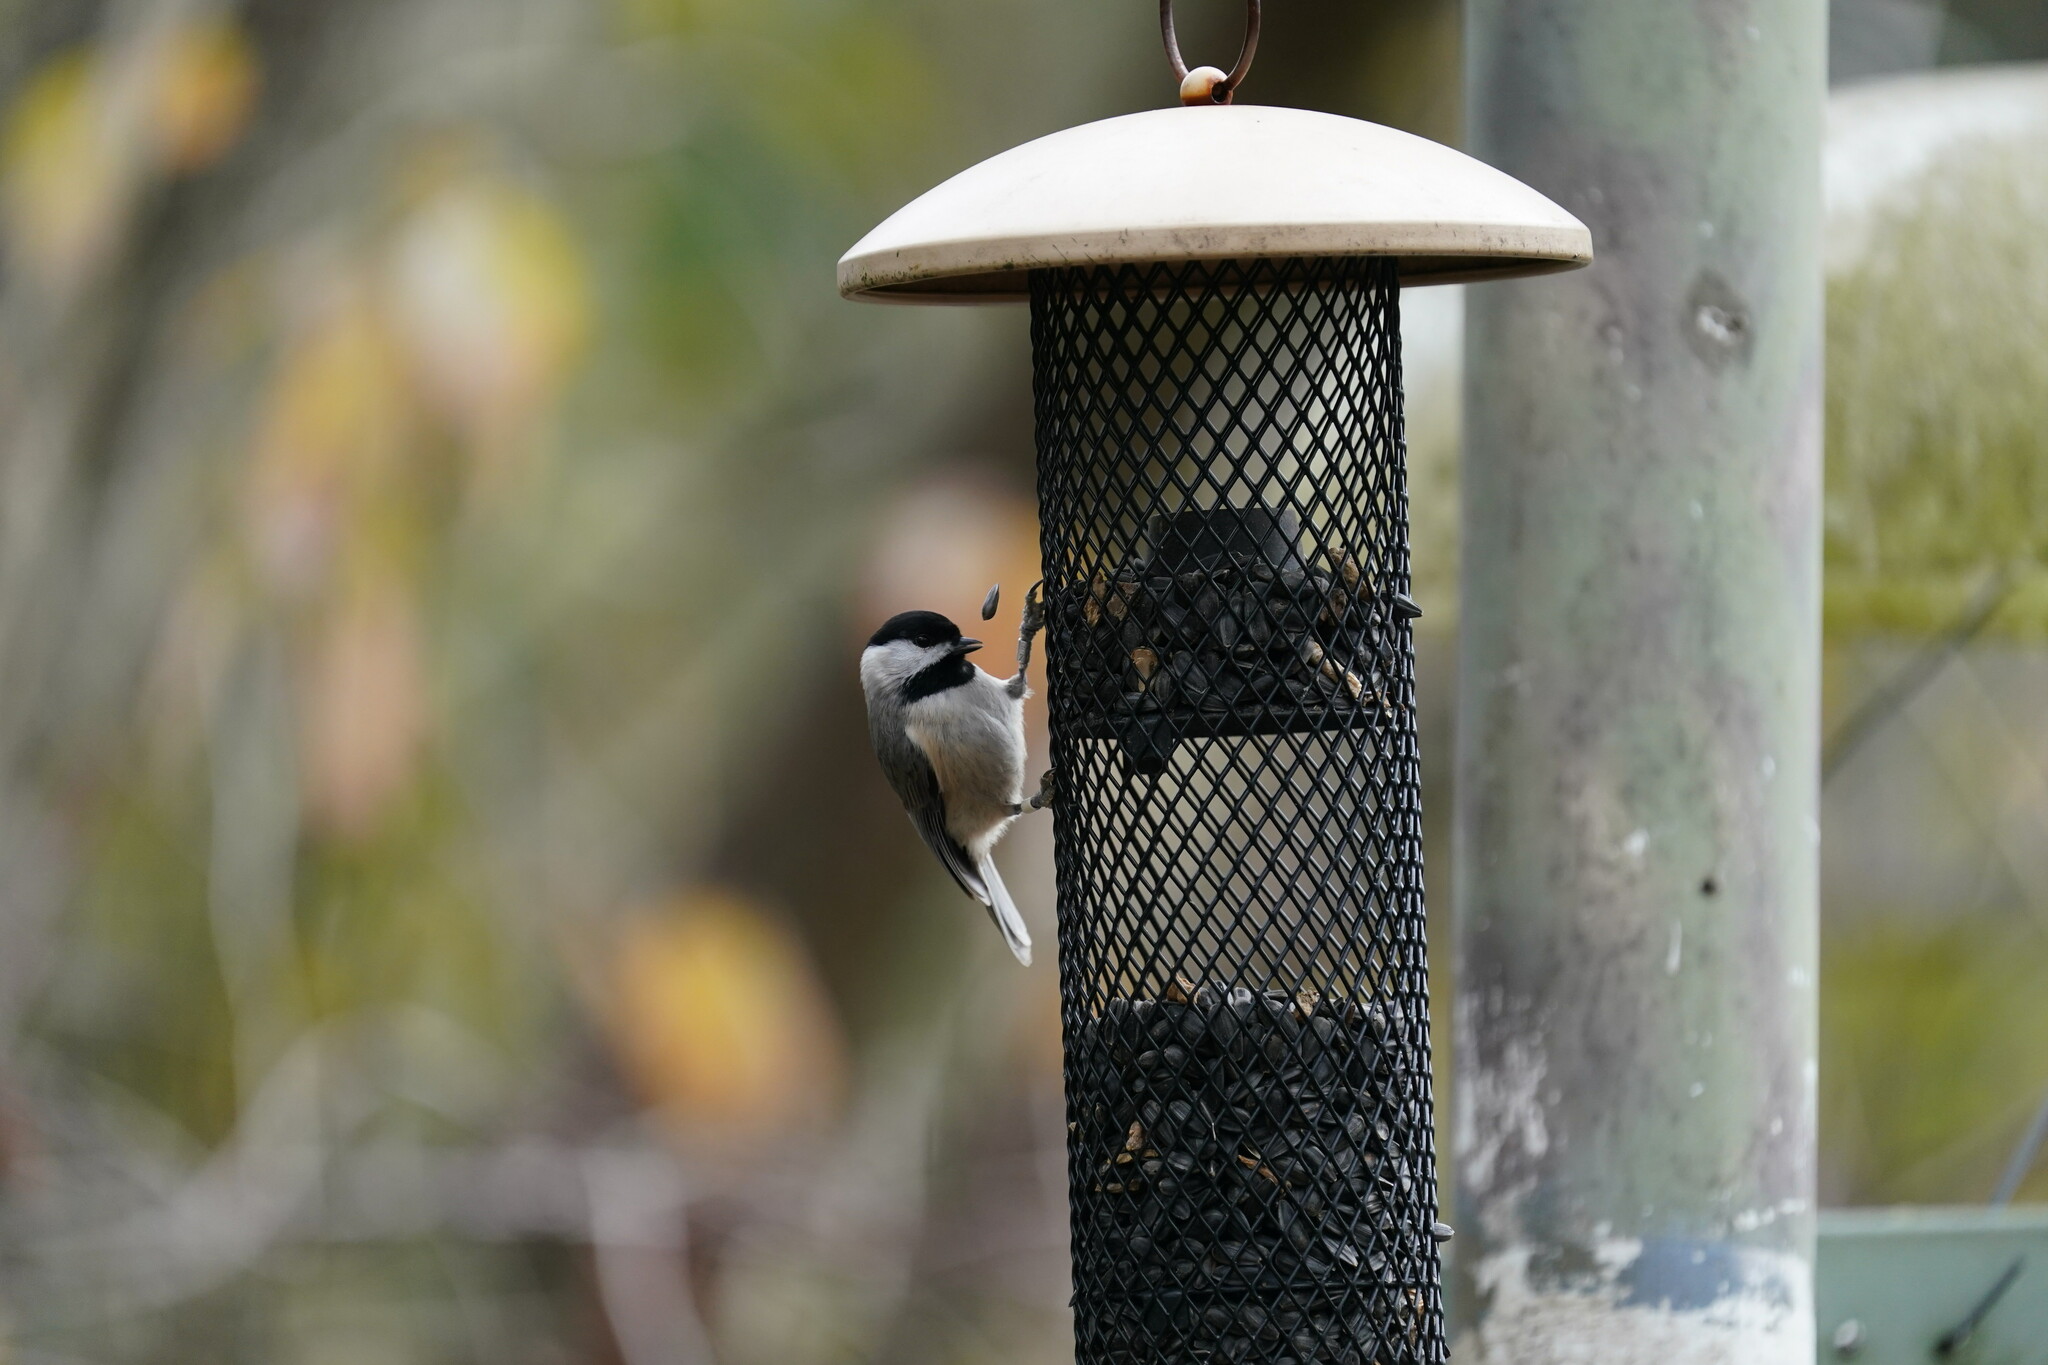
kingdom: Animalia
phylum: Chordata
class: Aves
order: Passeriformes
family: Paridae
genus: Poecile
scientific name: Poecile carolinensis
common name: Carolina chickadee
